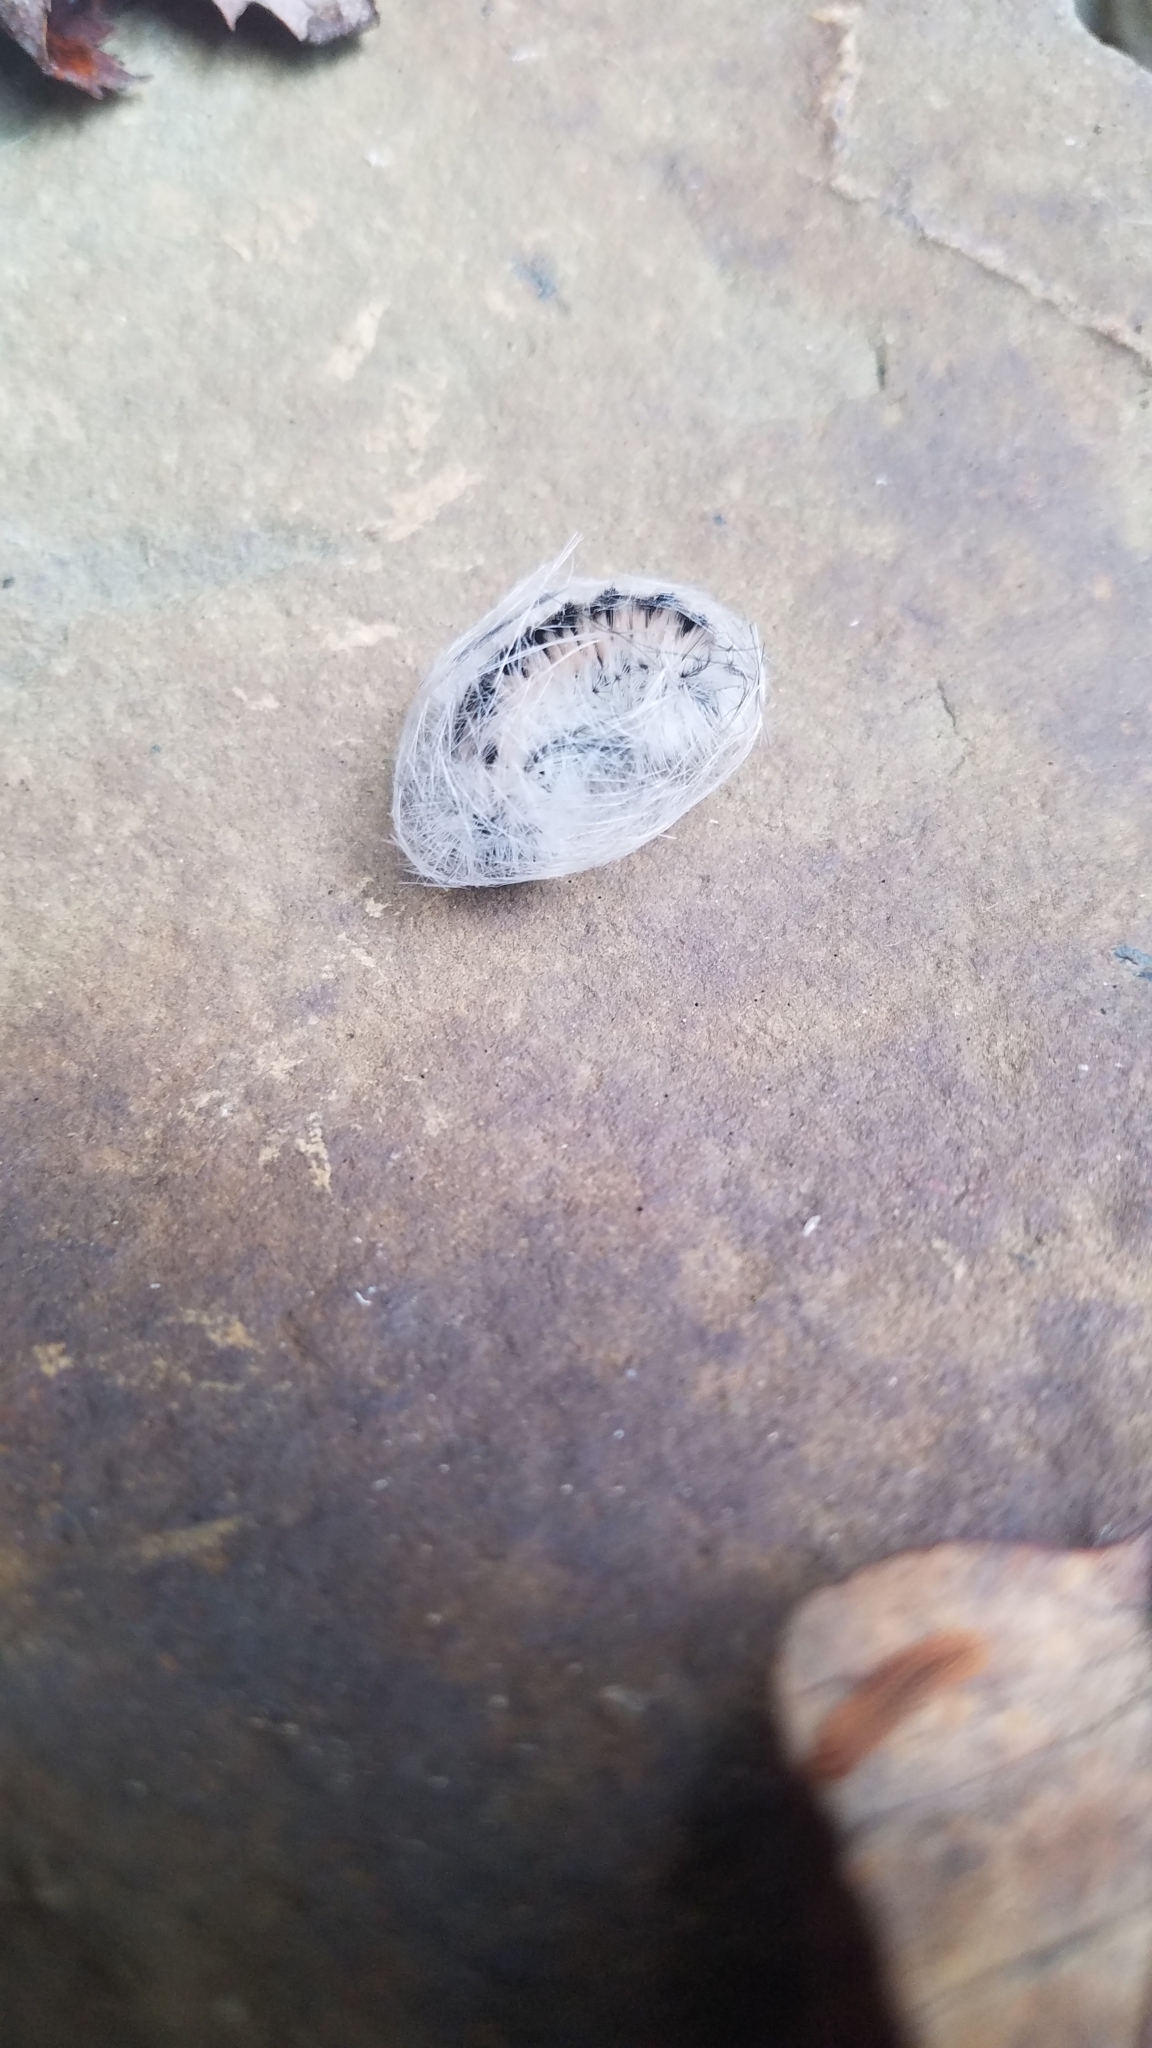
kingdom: Animalia
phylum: Arthropoda
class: Insecta
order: Lepidoptera
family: Erebidae
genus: Lophocampa
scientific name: Lophocampa caryae
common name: Hickory tussock moth
